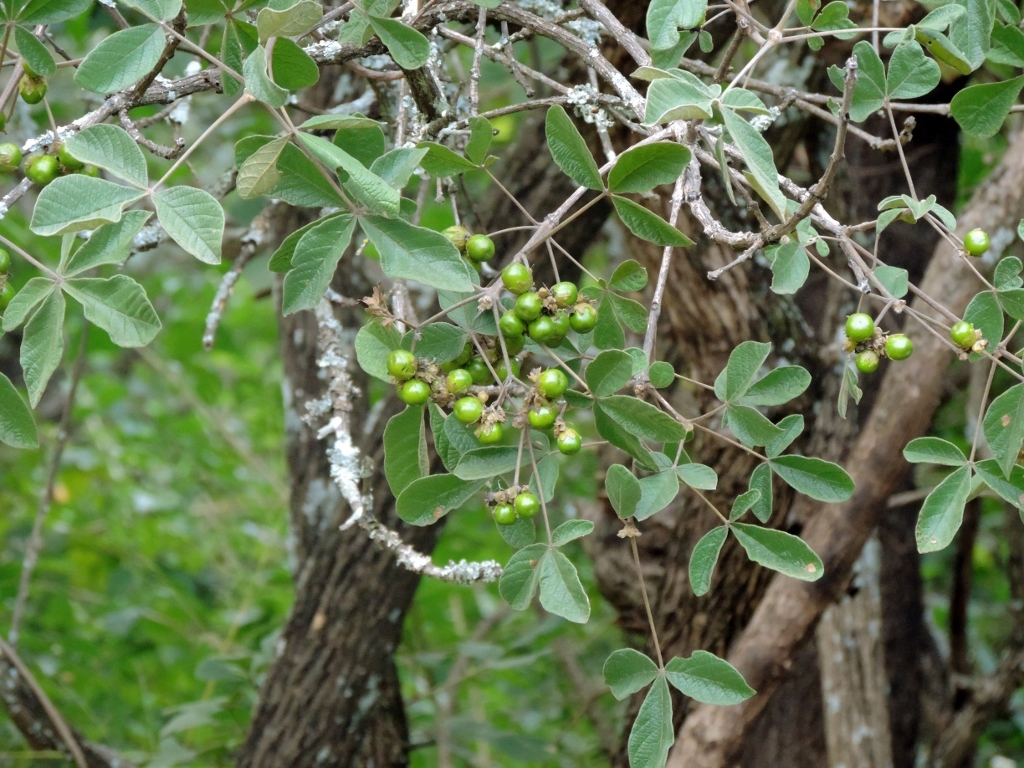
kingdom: Plantae
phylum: Tracheophyta
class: Magnoliopsida
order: Lamiales
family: Lamiaceae
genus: Vitex
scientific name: Vitex payos
